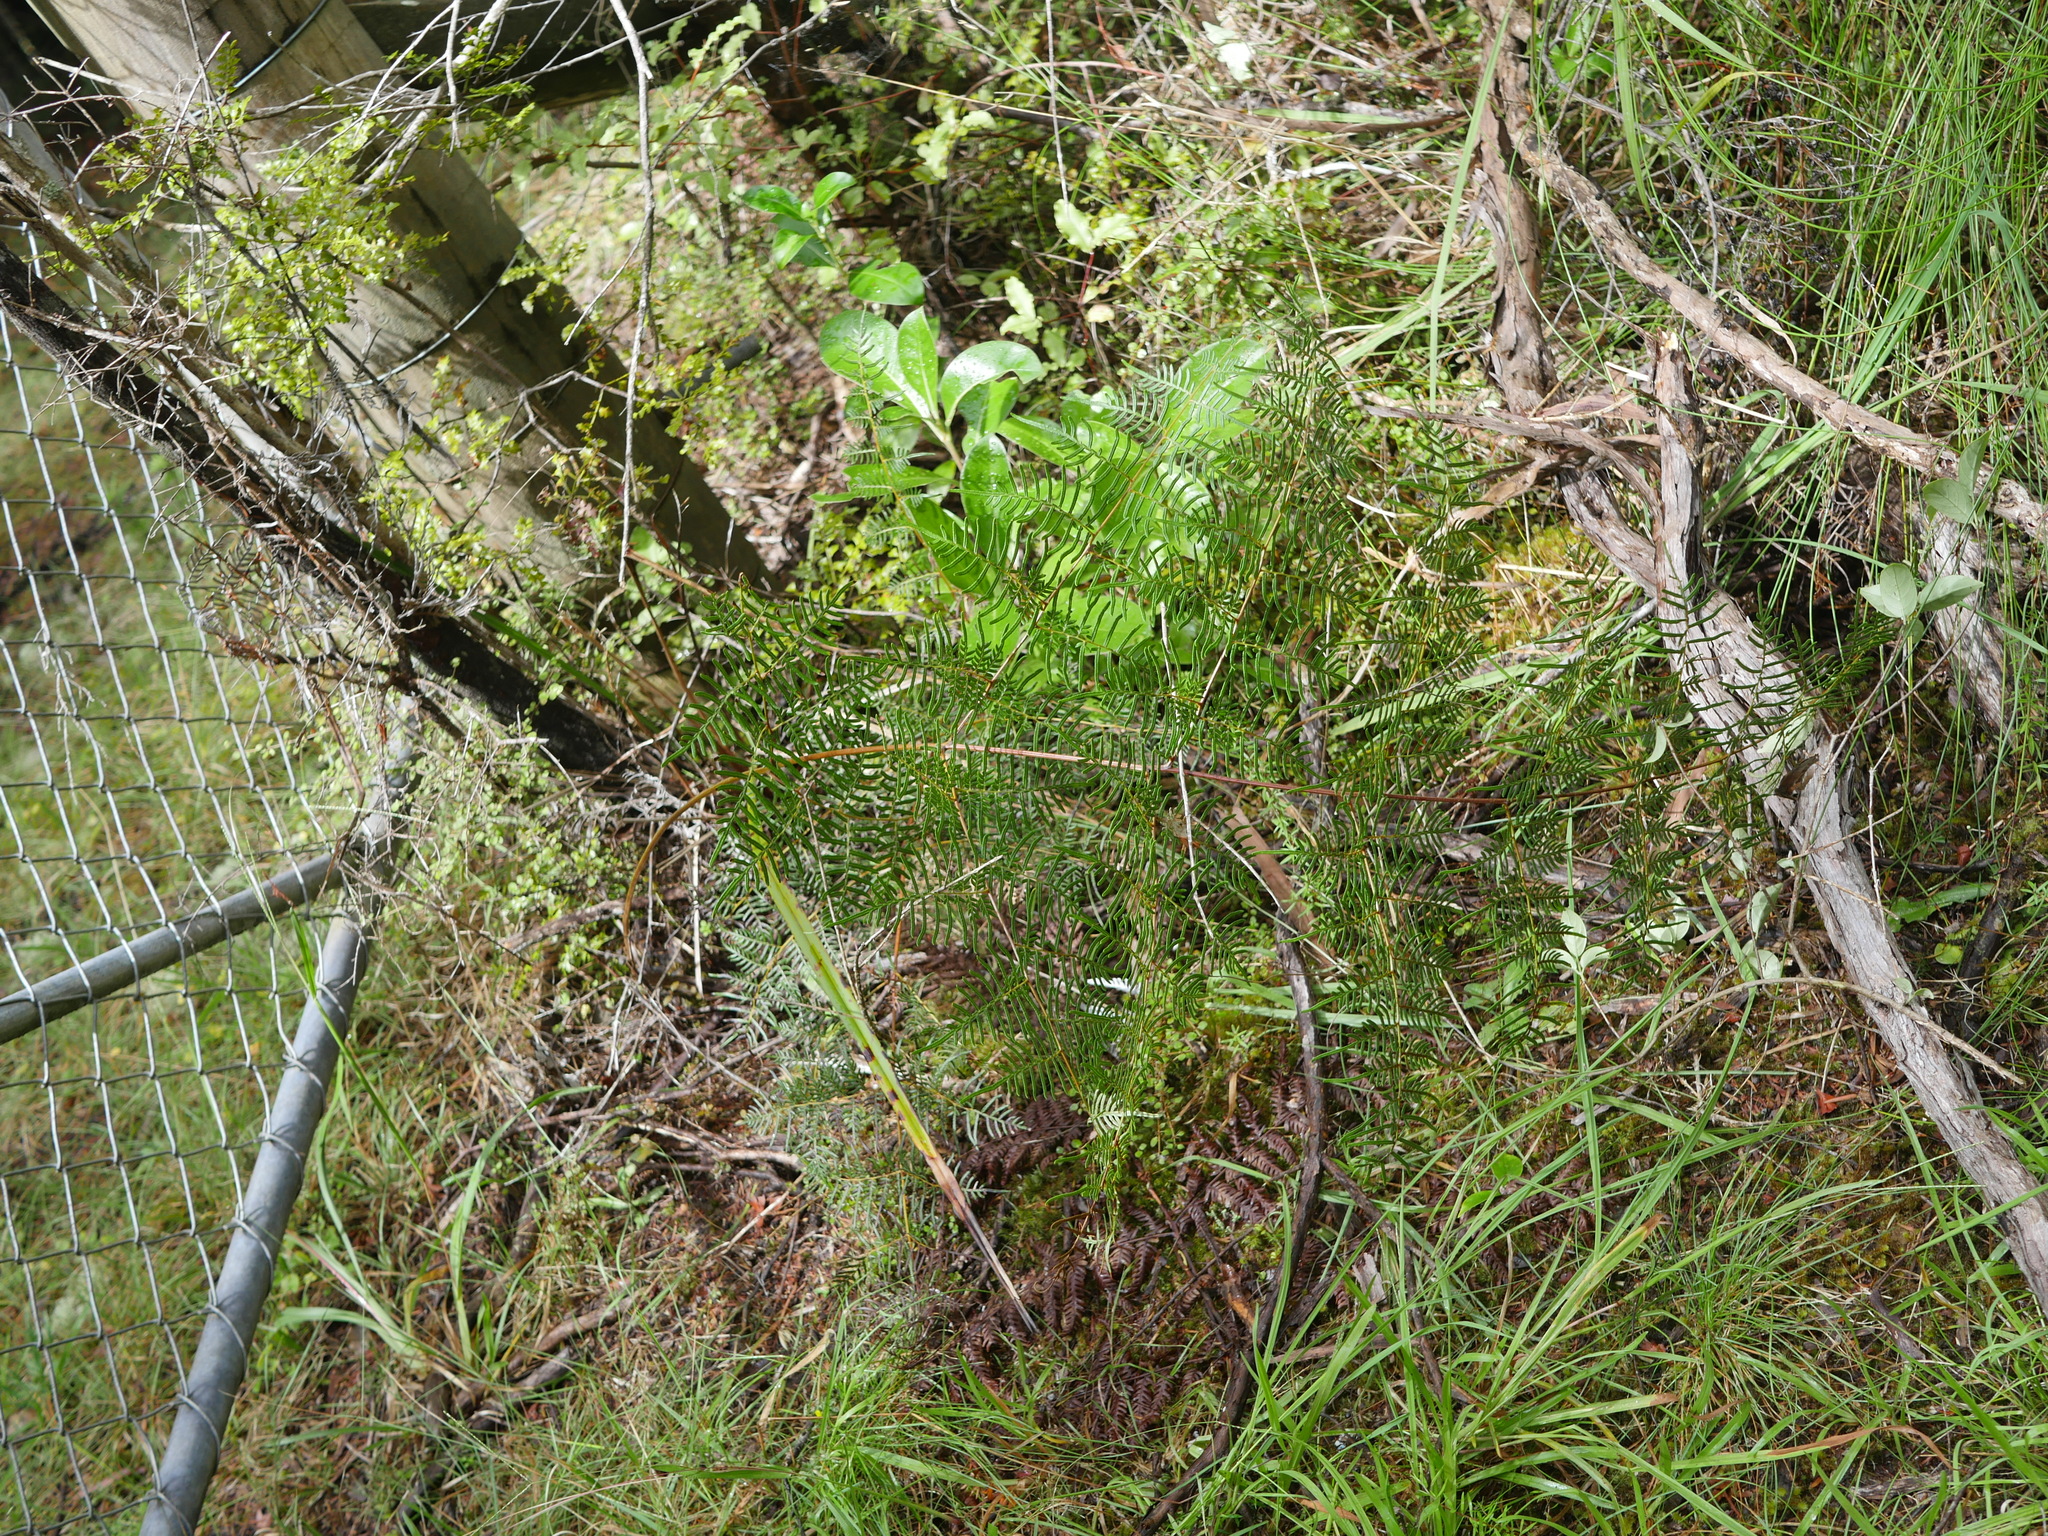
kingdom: Plantae
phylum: Tracheophyta
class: Polypodiopsida
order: Polypodiales
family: Dennstaedtiaceae
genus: Pteridium
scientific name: Pteridium esculentum
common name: Bracken fern
